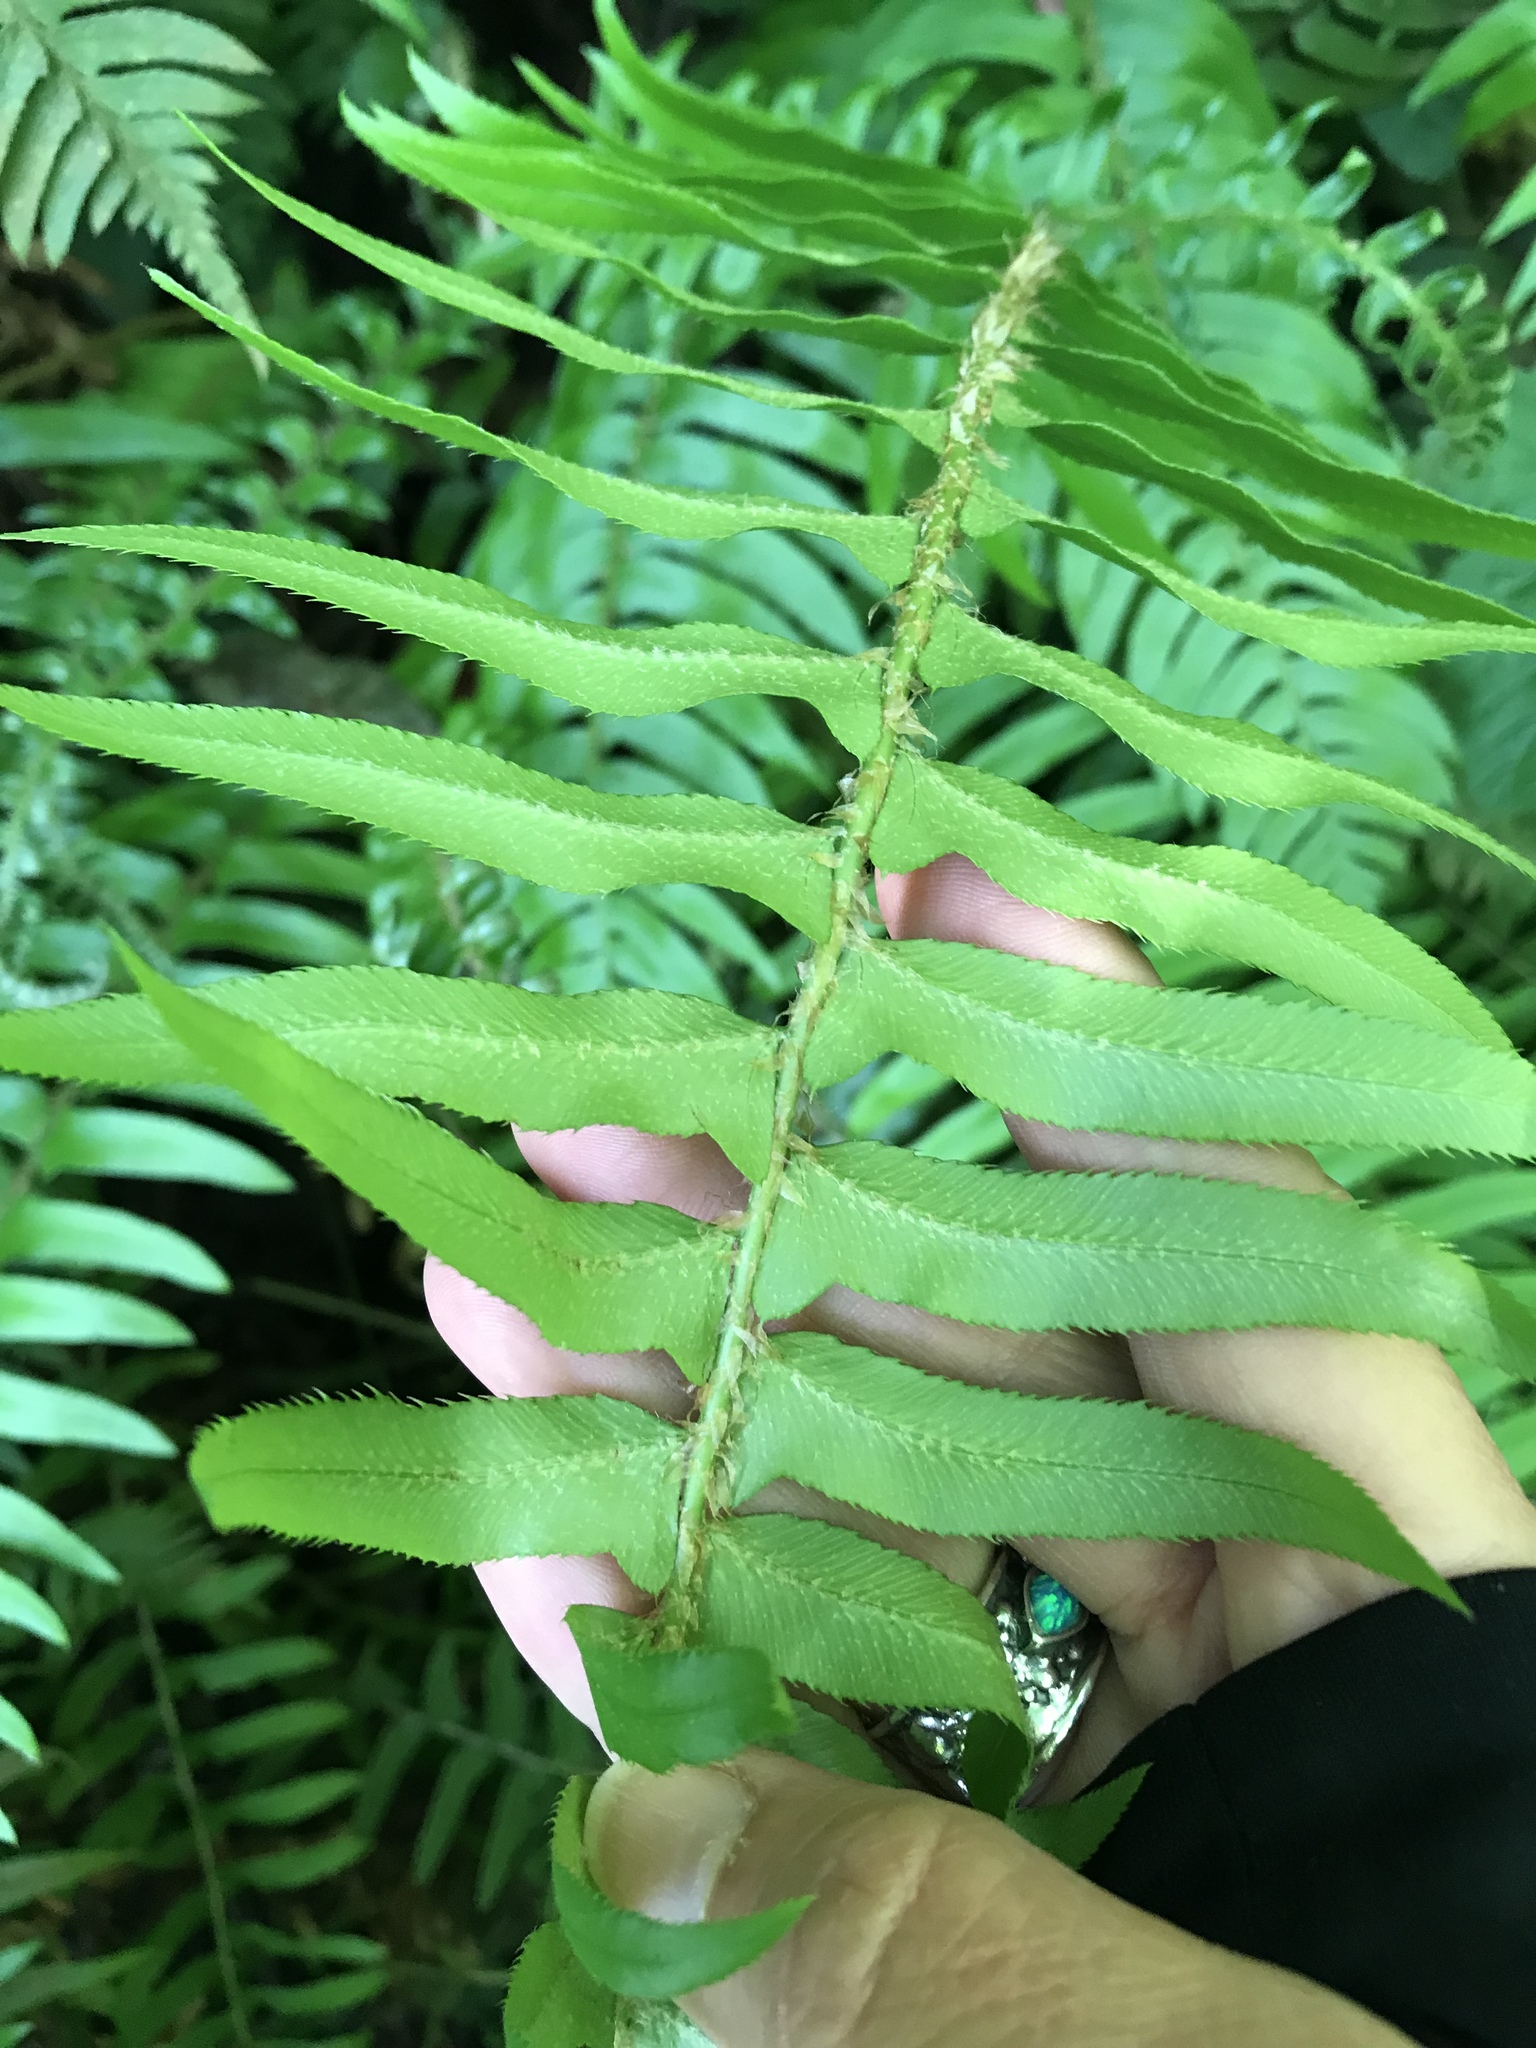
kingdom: Plantae
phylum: Tracheophyta
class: Polypodiopsida
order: Polypodiales
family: Dryopteridaceae
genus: Polystichum
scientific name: Polystichum munitum
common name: Western sword-fern
